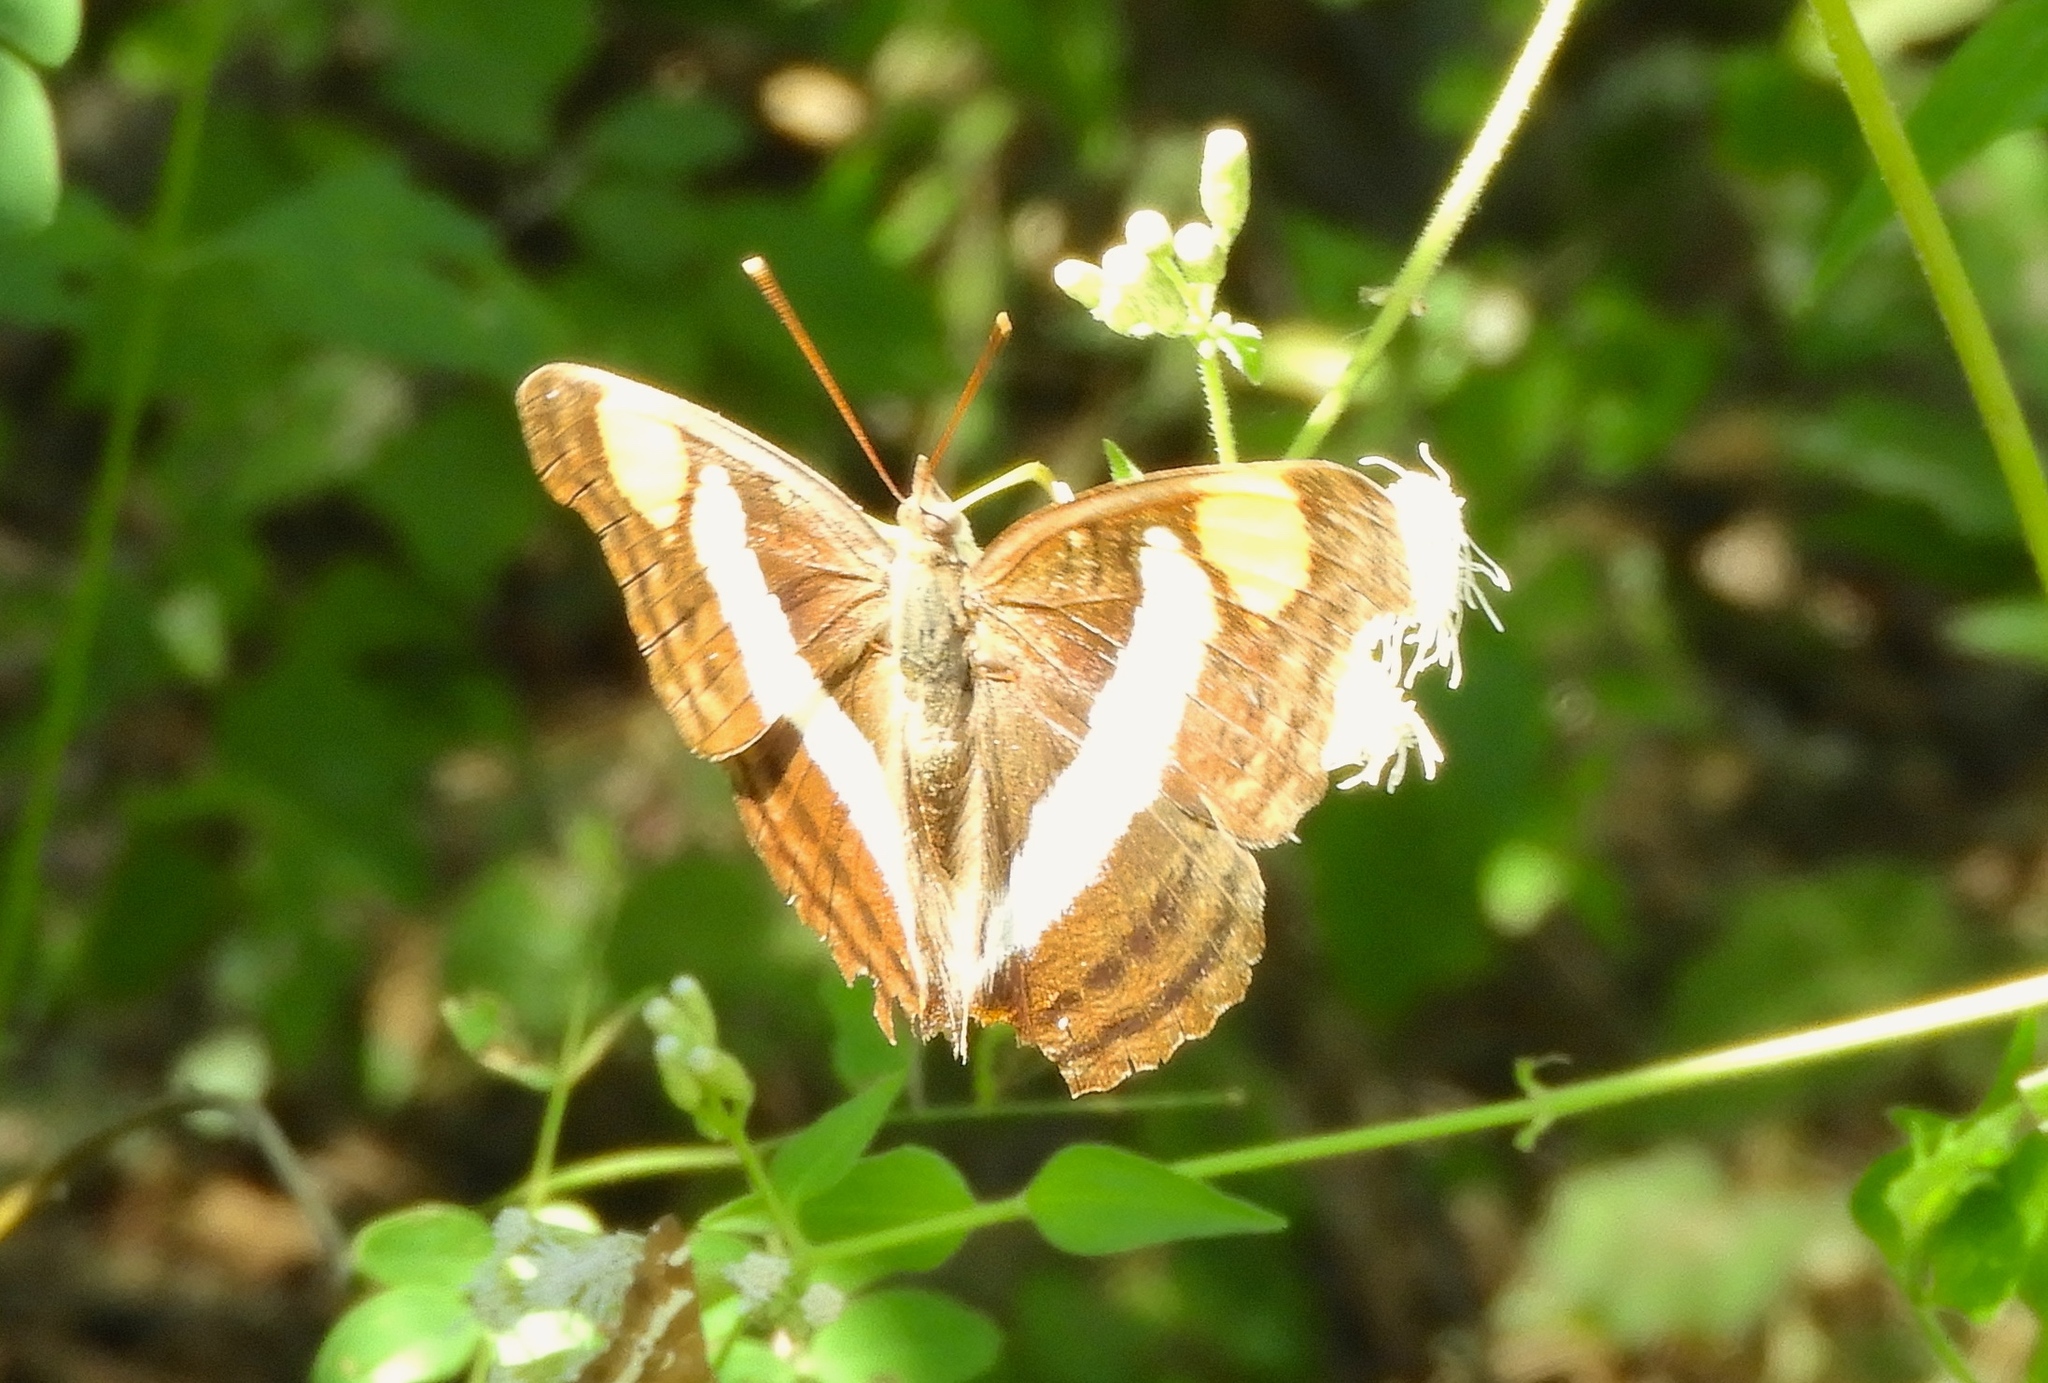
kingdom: Animalia
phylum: Arthropoda
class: Insecta
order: Lepidoptera
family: Nymphalidae
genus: Doxocopa
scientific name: Doxocopa laure
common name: Silver emperor
